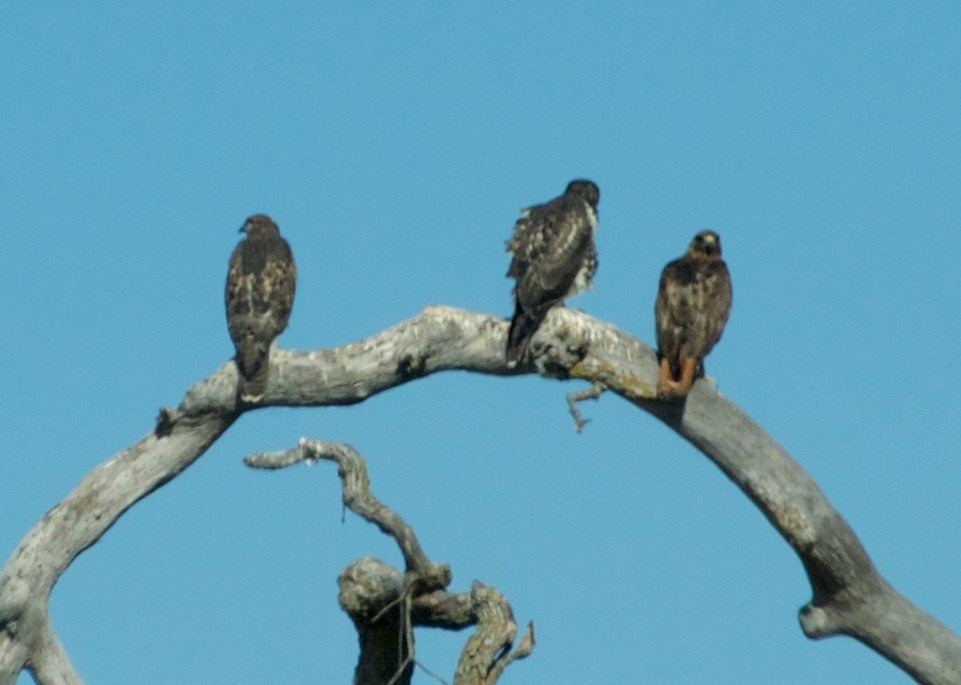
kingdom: Animalia
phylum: Chordata
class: Aves
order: Accipitriformes
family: Accipitridae
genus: Buteo
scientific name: Buteo jamaicensis
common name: Red-tailed hawk
